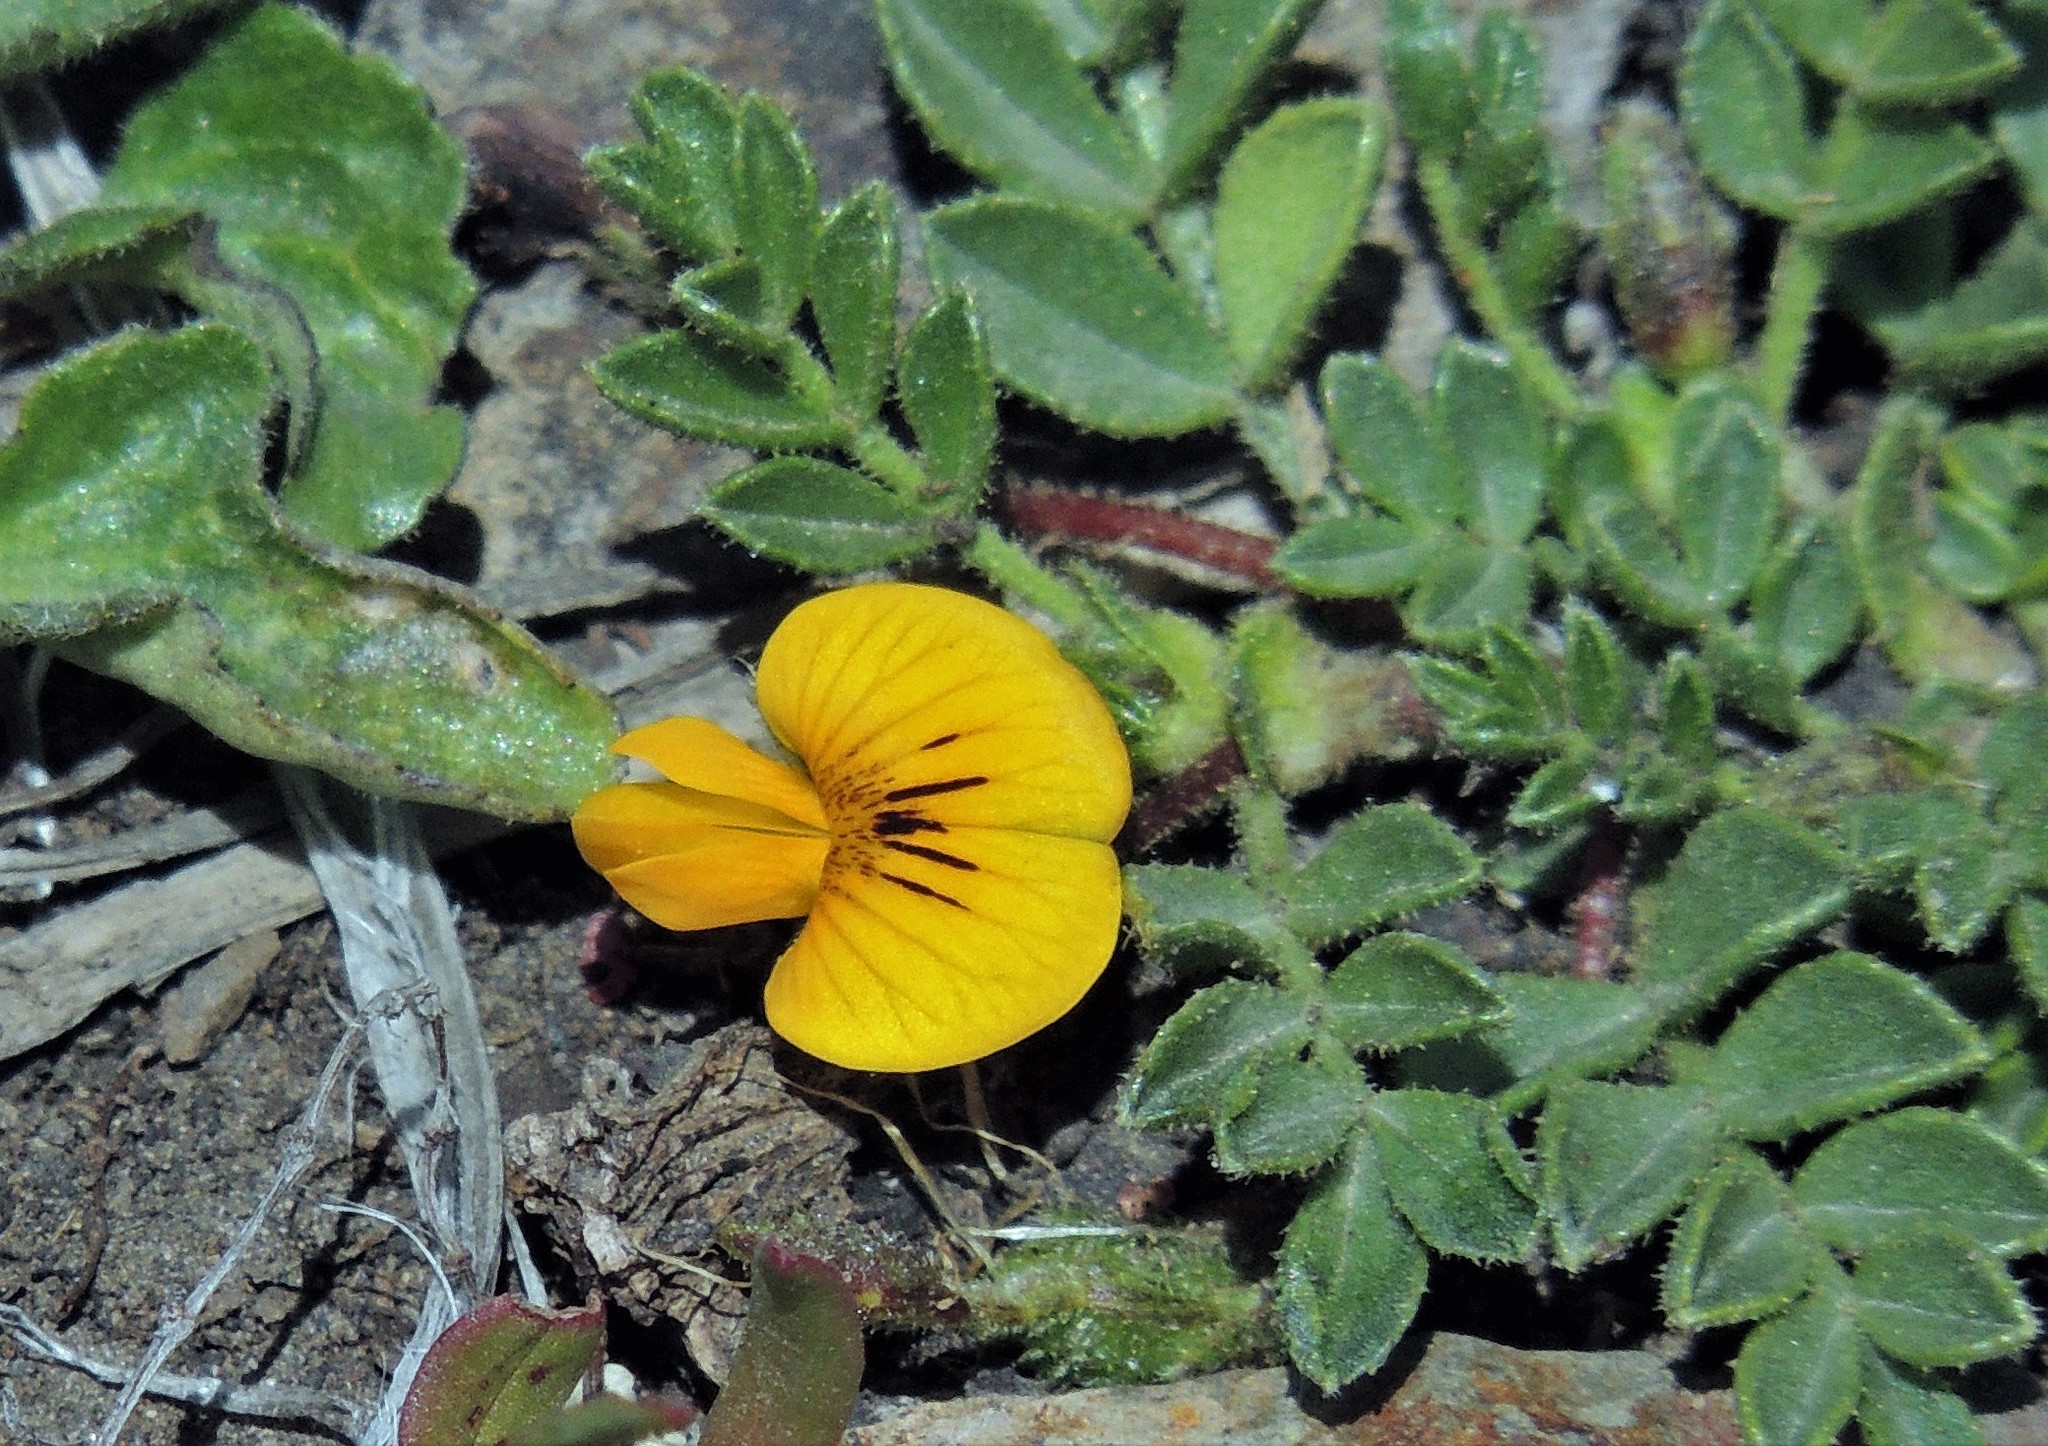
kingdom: Plantae
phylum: Tracheophyta
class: Magnoliopsida
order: Fabales
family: Fabaceae
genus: Adesmia
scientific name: Adesmia pumila
